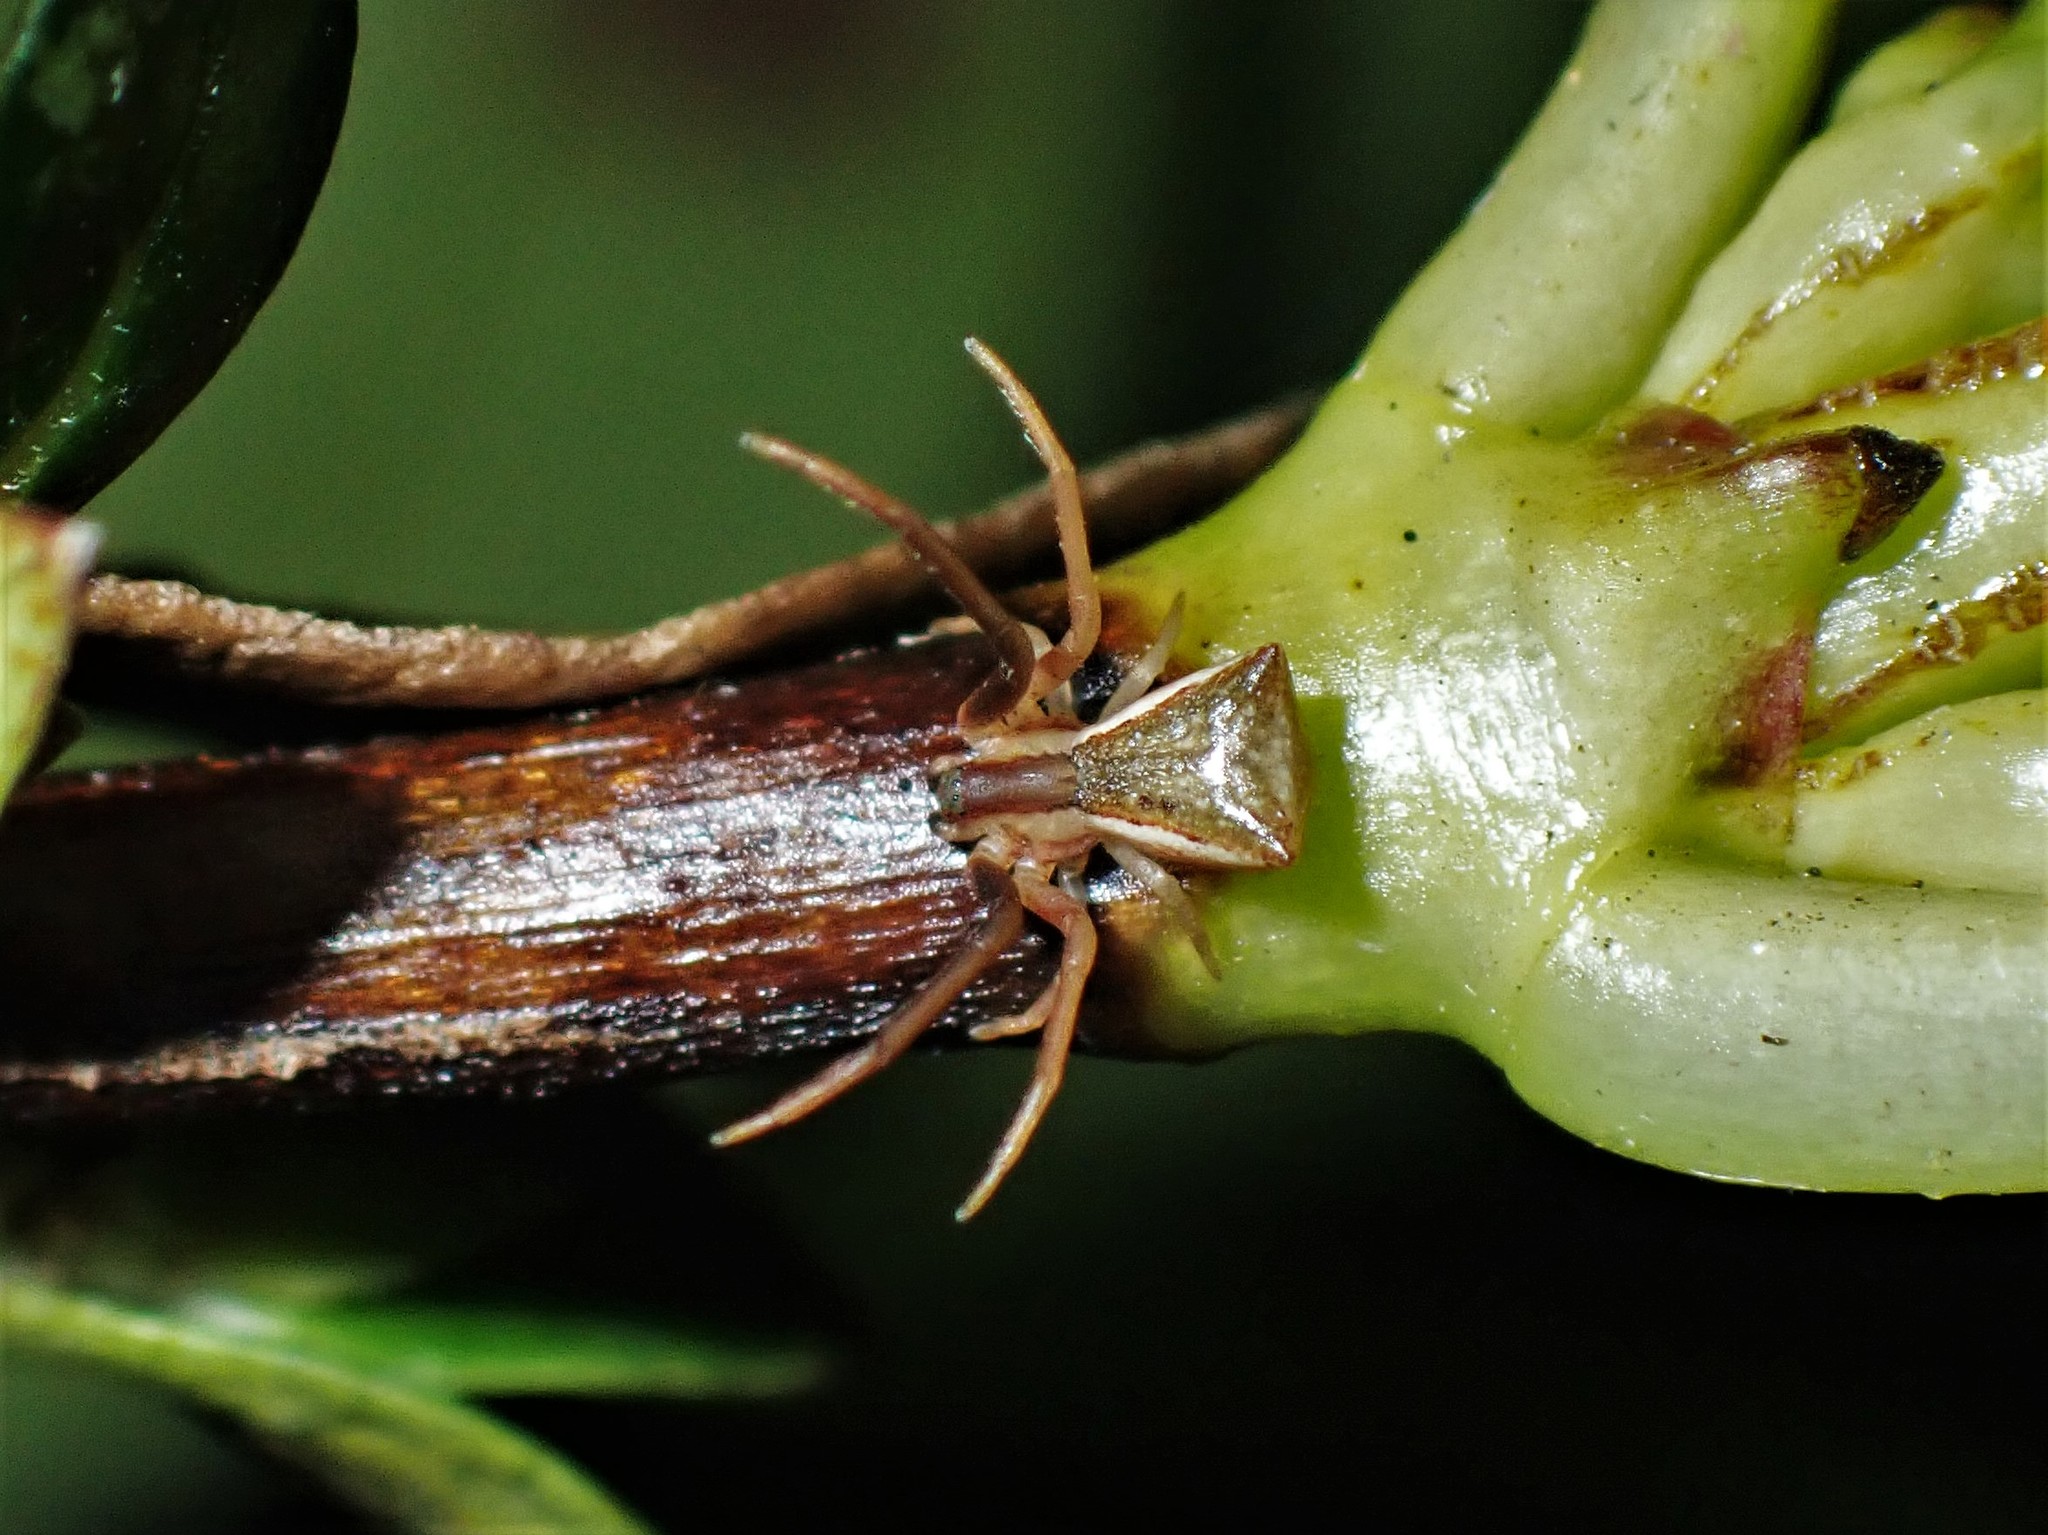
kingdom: Animalia
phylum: Arthropoda
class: Arachnida
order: Araneae
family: Thomisidae
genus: Sidymella
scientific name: Sidymella trapezia
